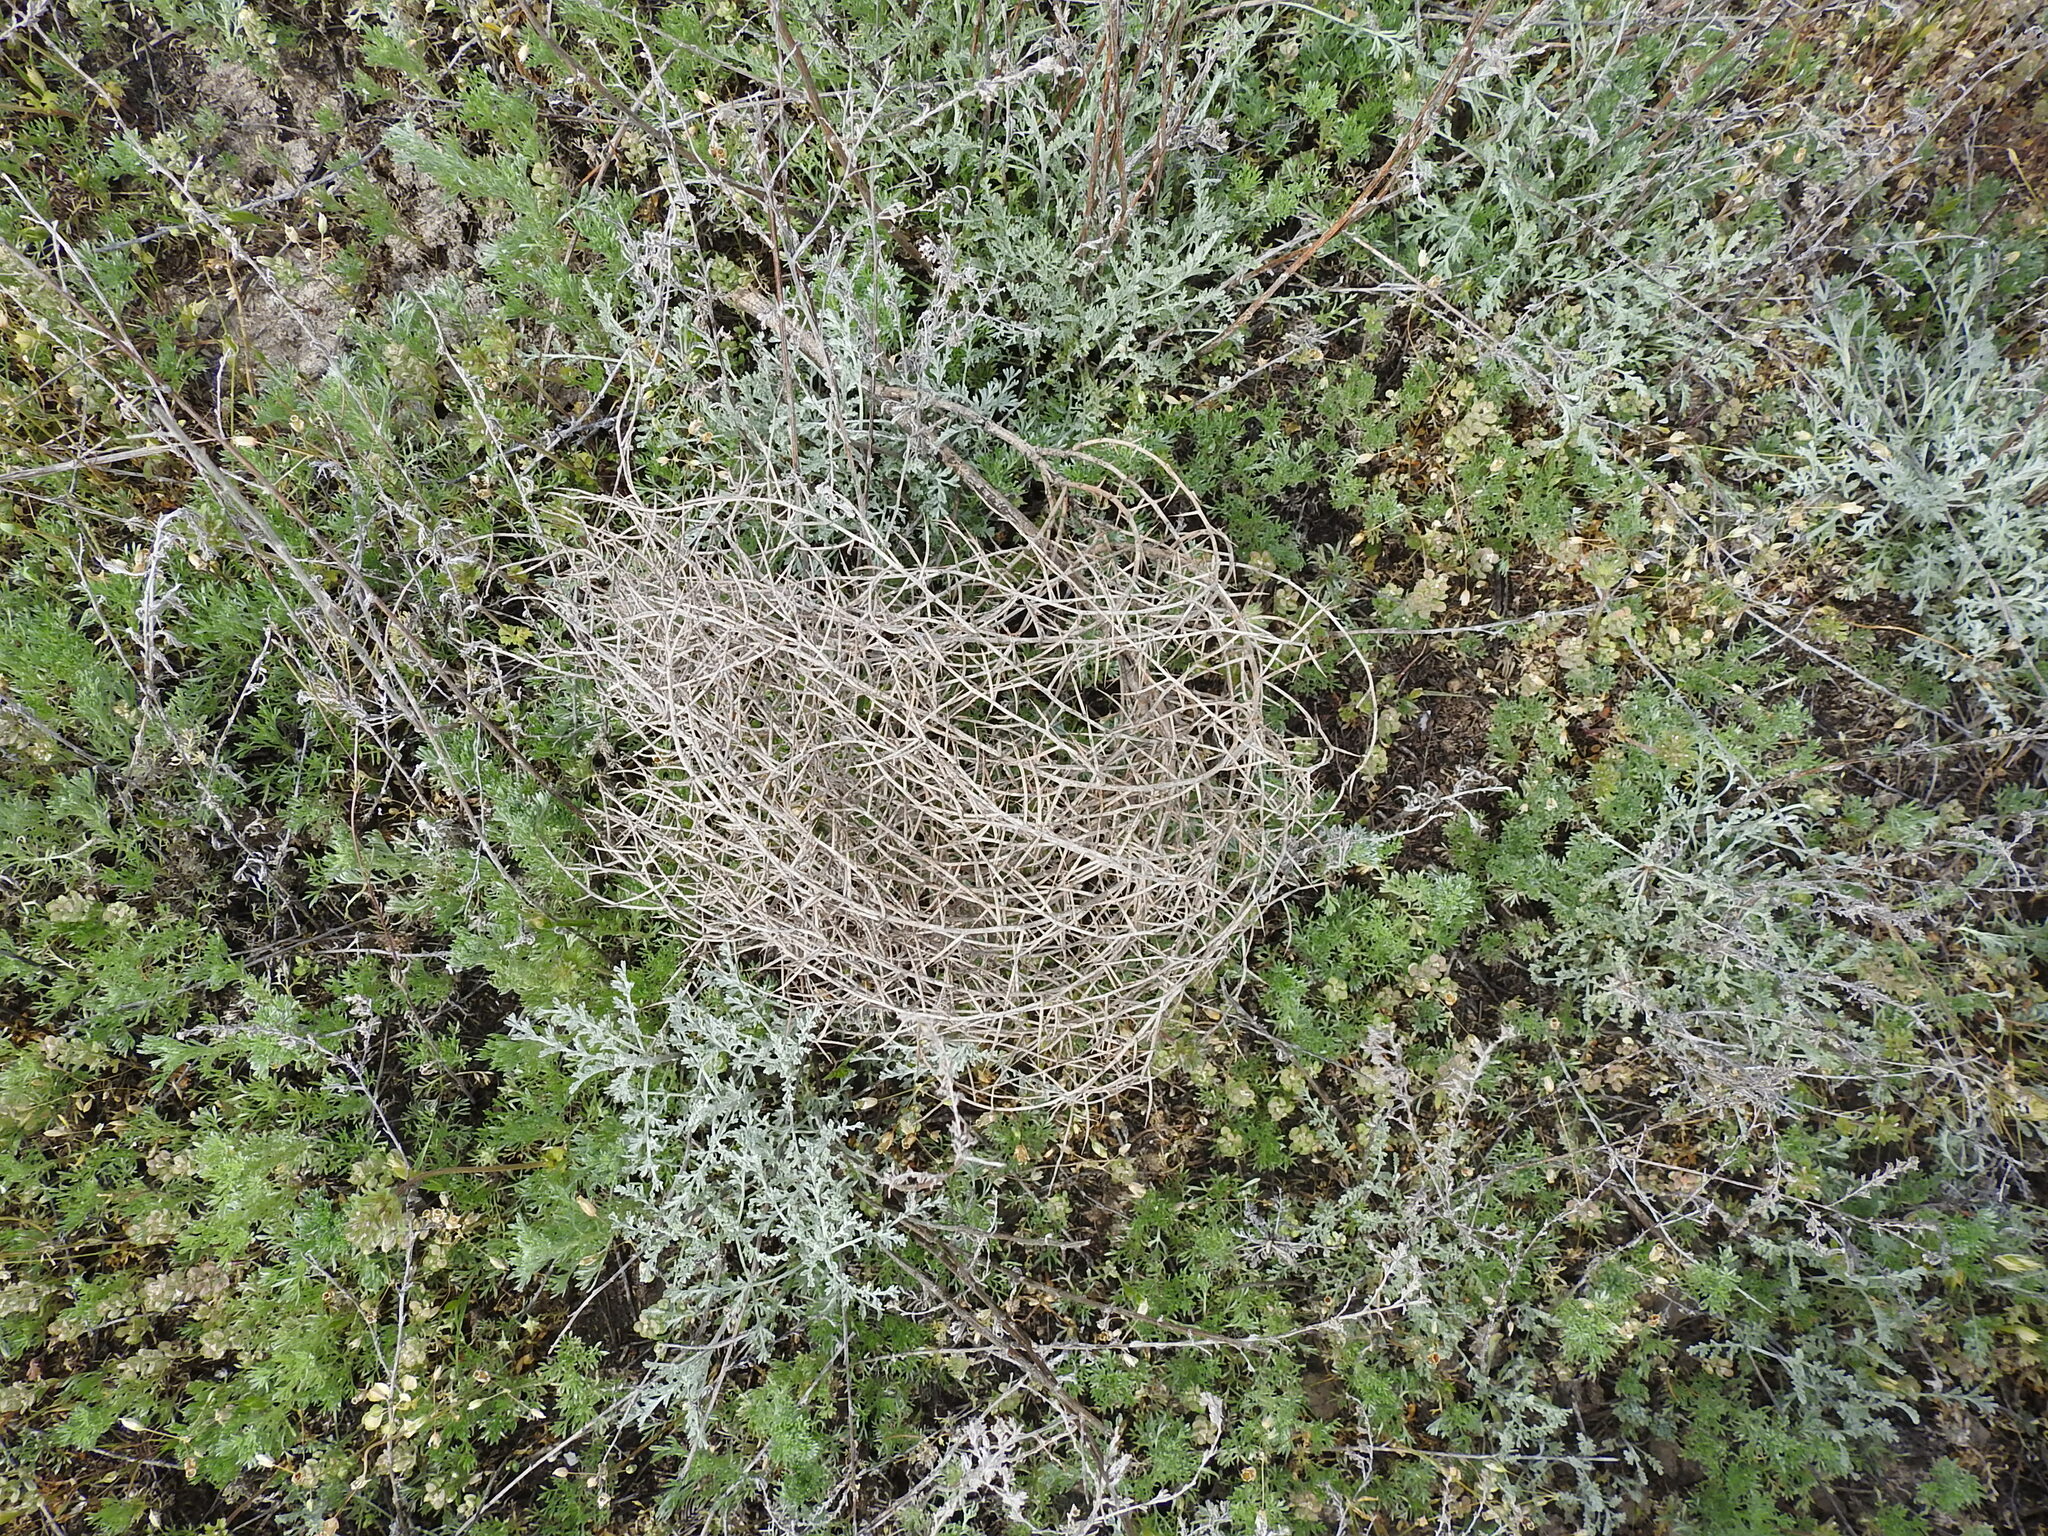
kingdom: Plantae
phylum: Tracheophyta
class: Magnoliopsida
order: Caryophyllales
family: Amaranthaceae
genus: Salsola
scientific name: Salsola tragus
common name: Prickly russian thistle
